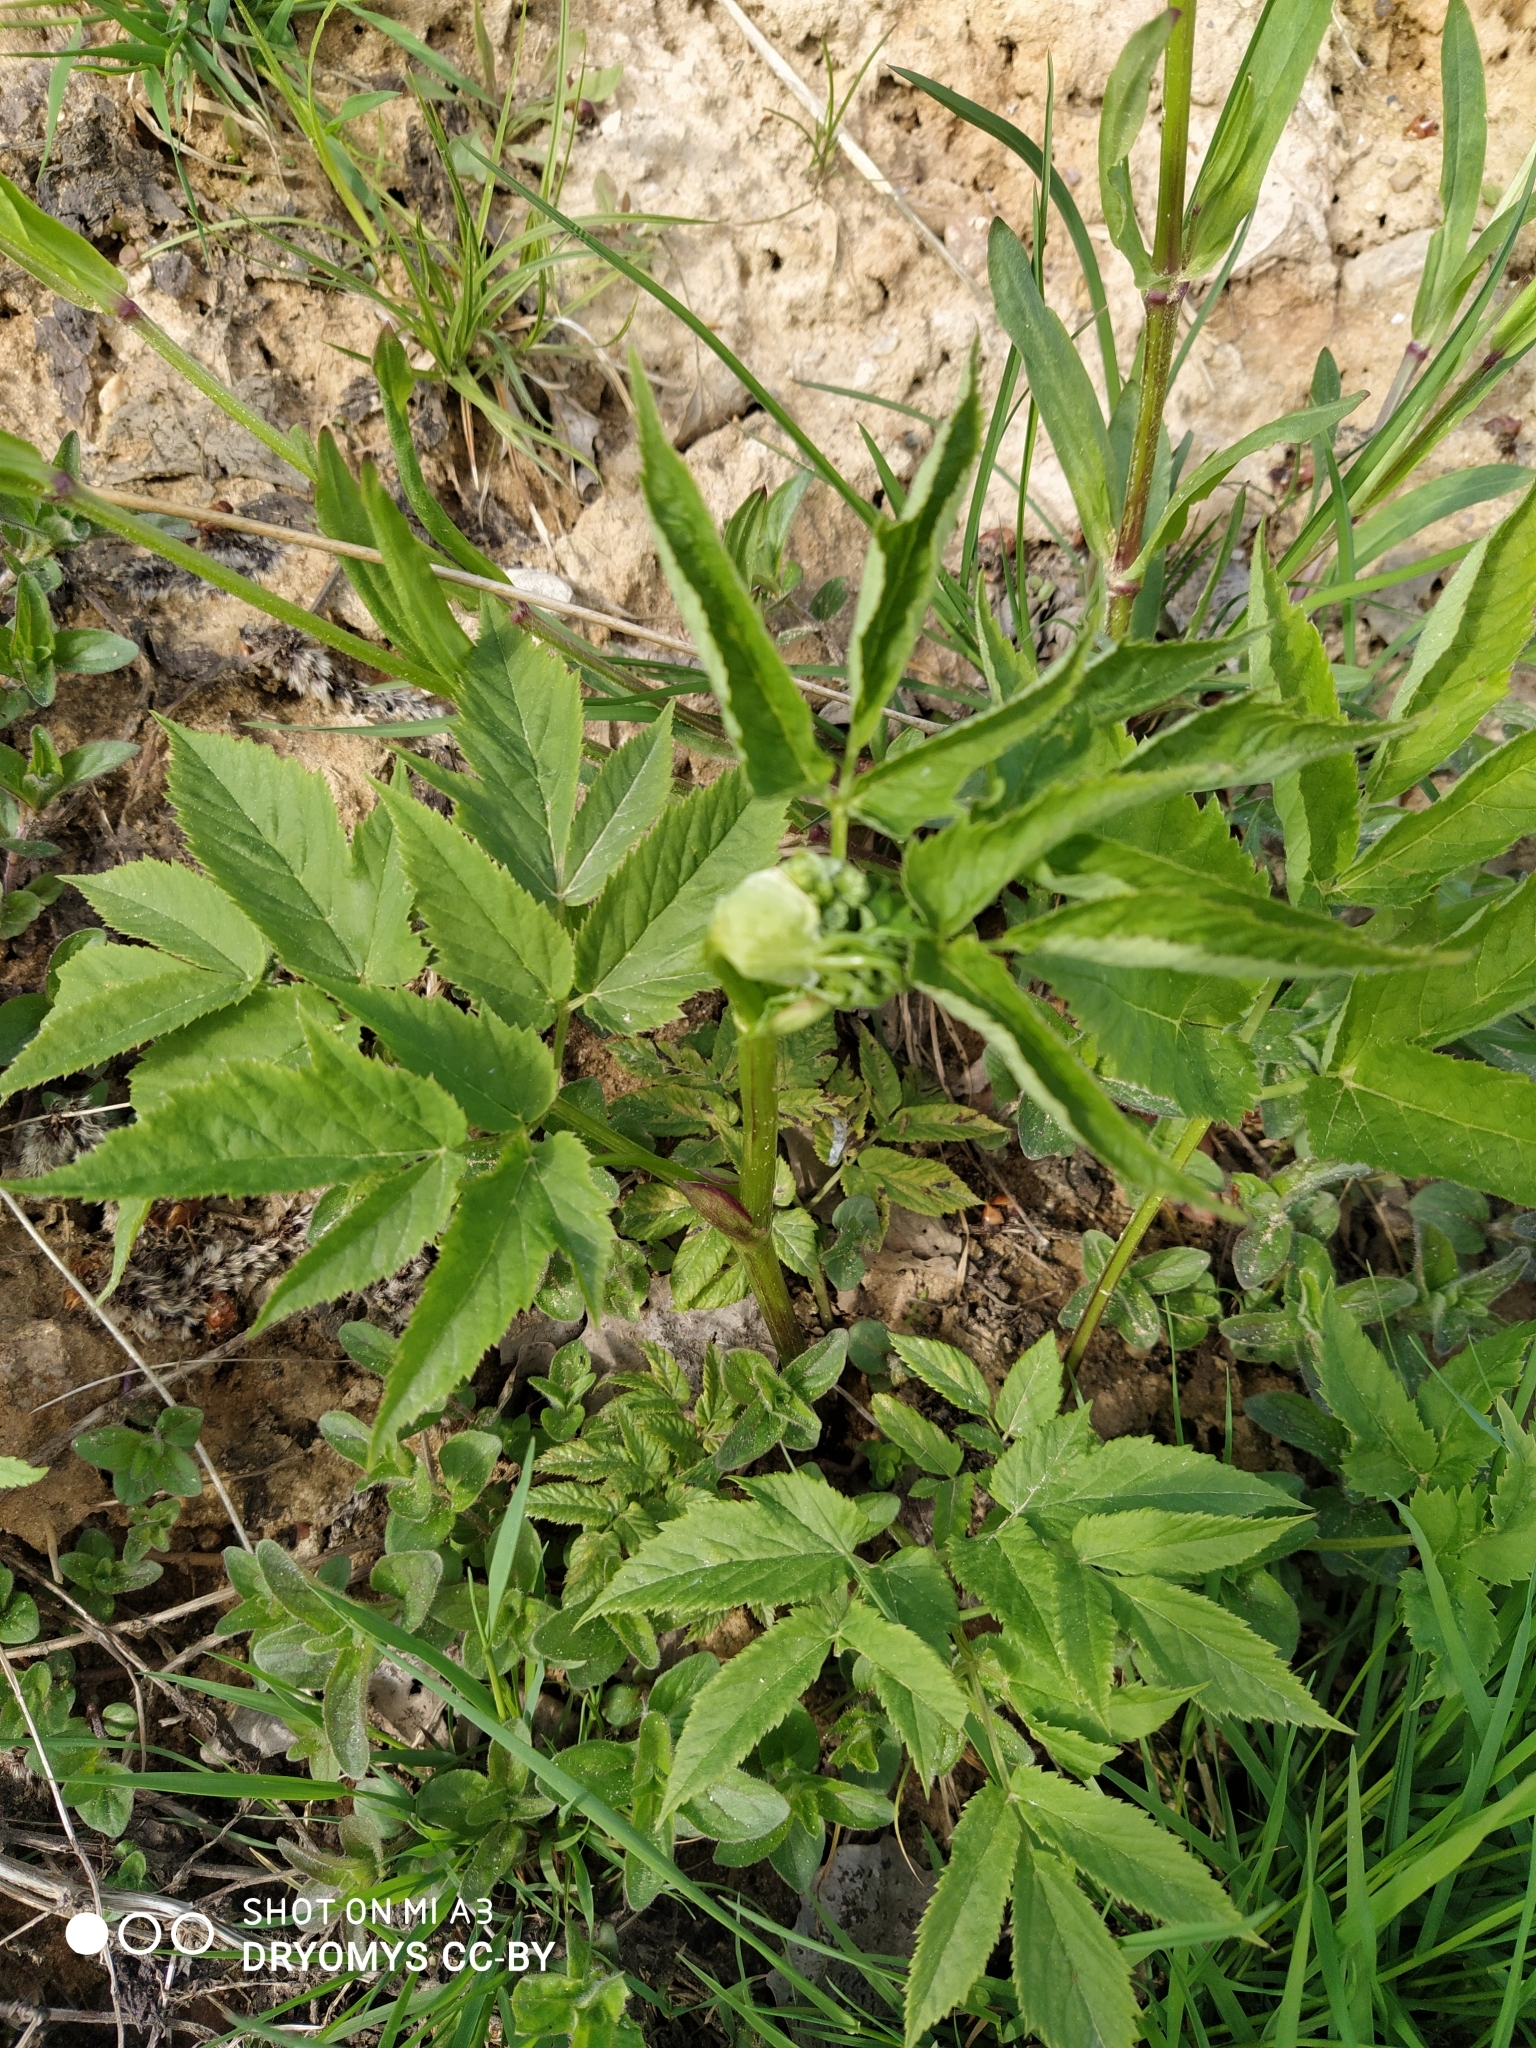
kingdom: Plantae
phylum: Tracheophyta
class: Magnoliopsida
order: Apiales
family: Apiaceae
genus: Aegopodium
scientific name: Aegopodium podagraria
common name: Ground-elder
